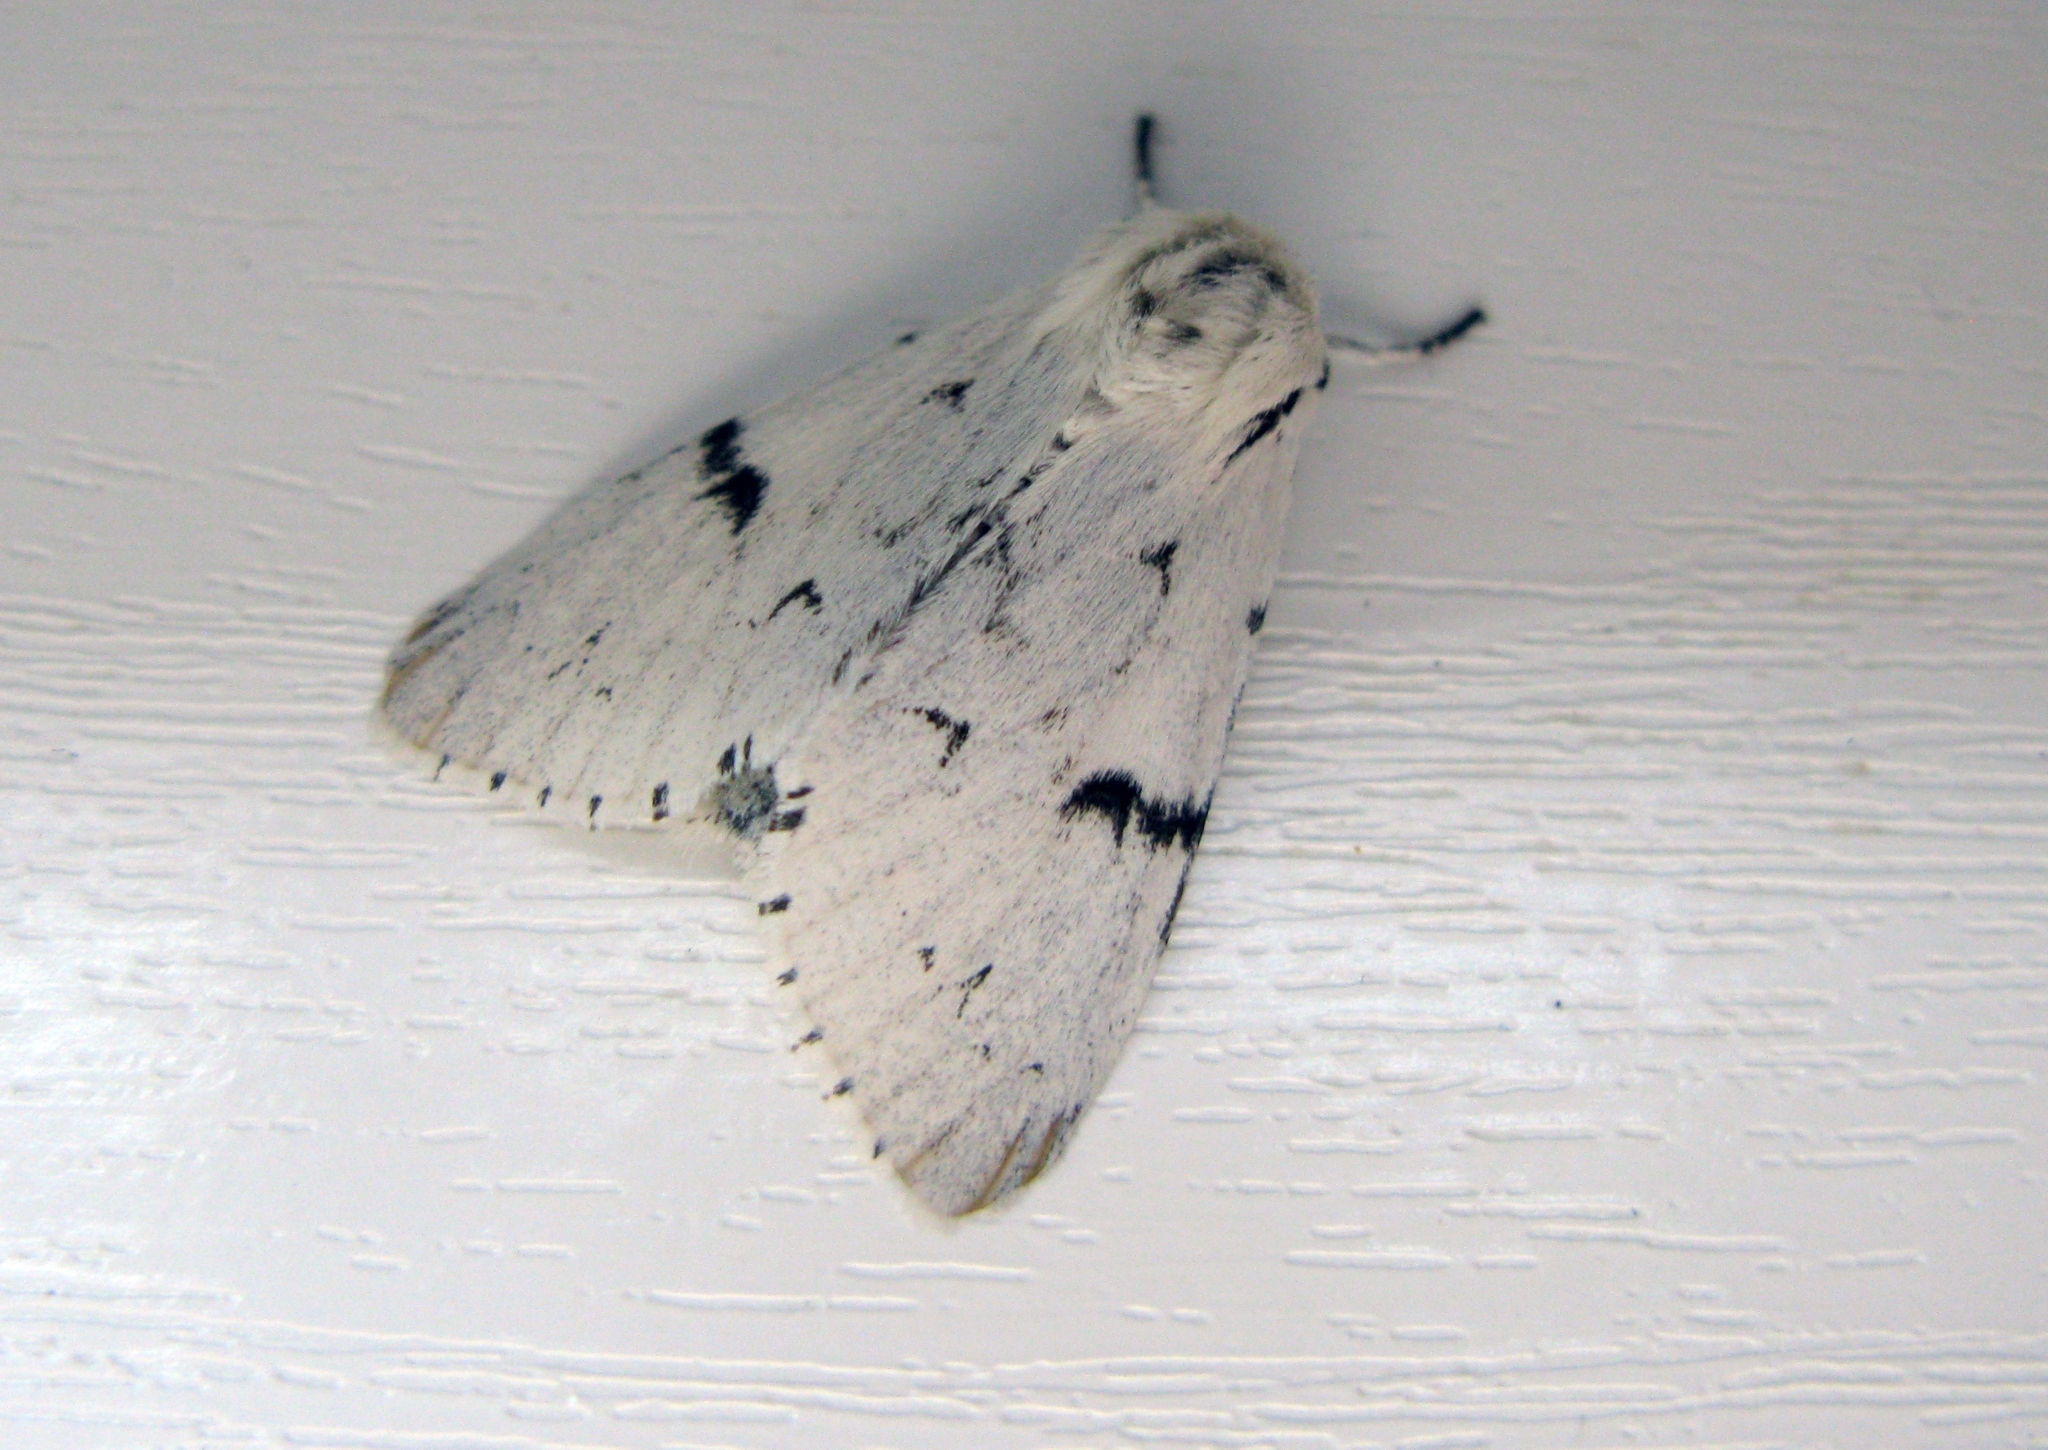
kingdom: Animalia
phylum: Arthropoda
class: Insecta
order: Lepidoptera
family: Noctuidae
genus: Acronicta
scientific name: Acronicta leporina
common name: Miller
